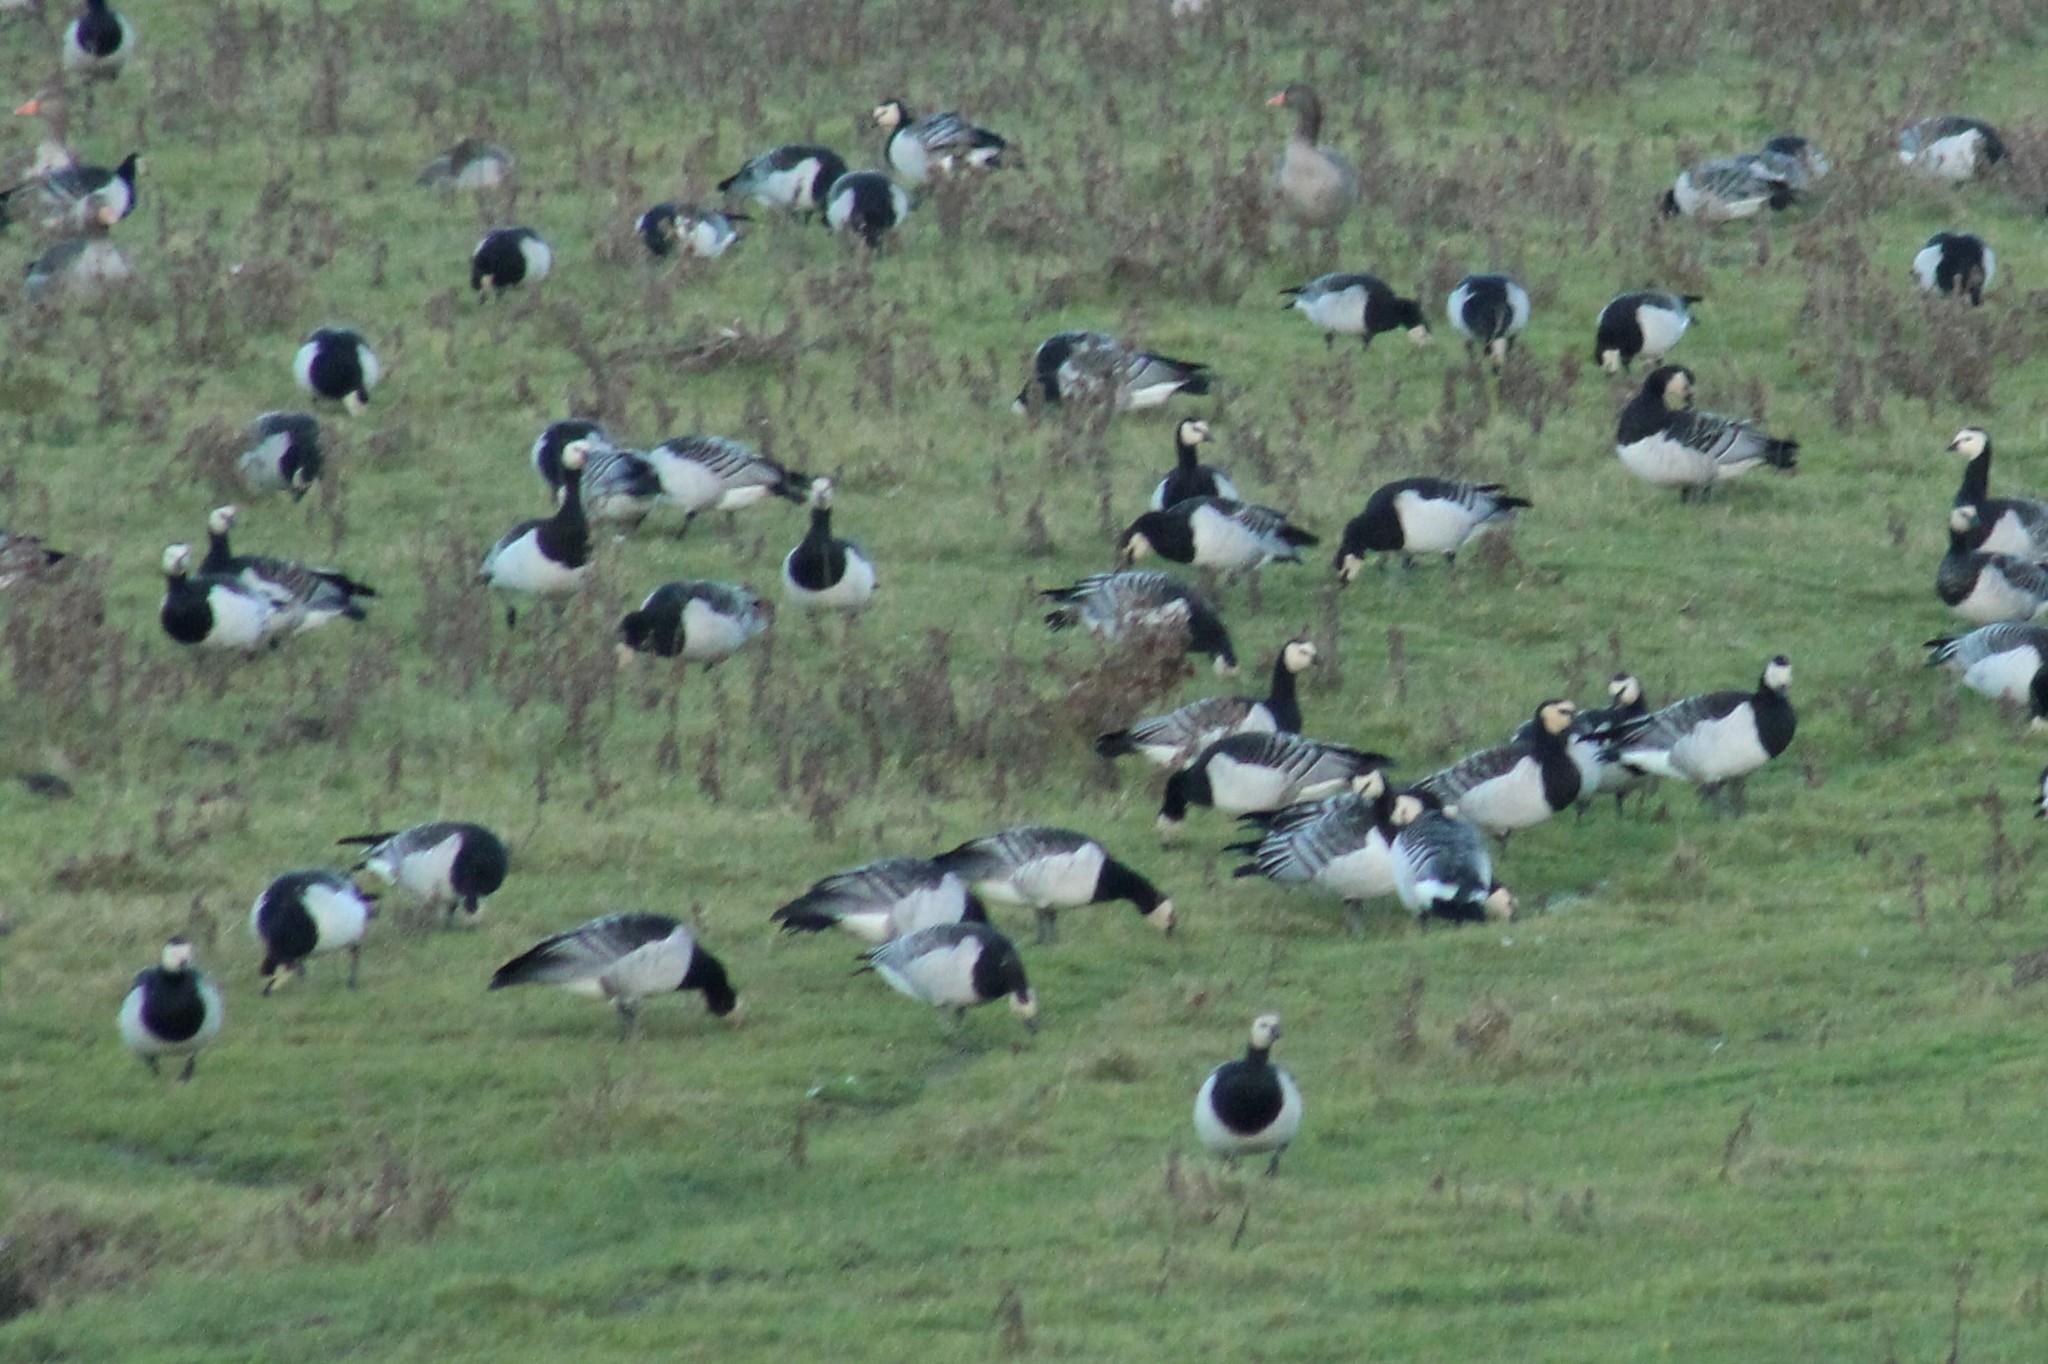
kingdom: Animalia
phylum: Chordata
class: Aves
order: Anseriformes
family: Anatidae
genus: Branta
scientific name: Branta leucopsis
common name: Barnacle goose
